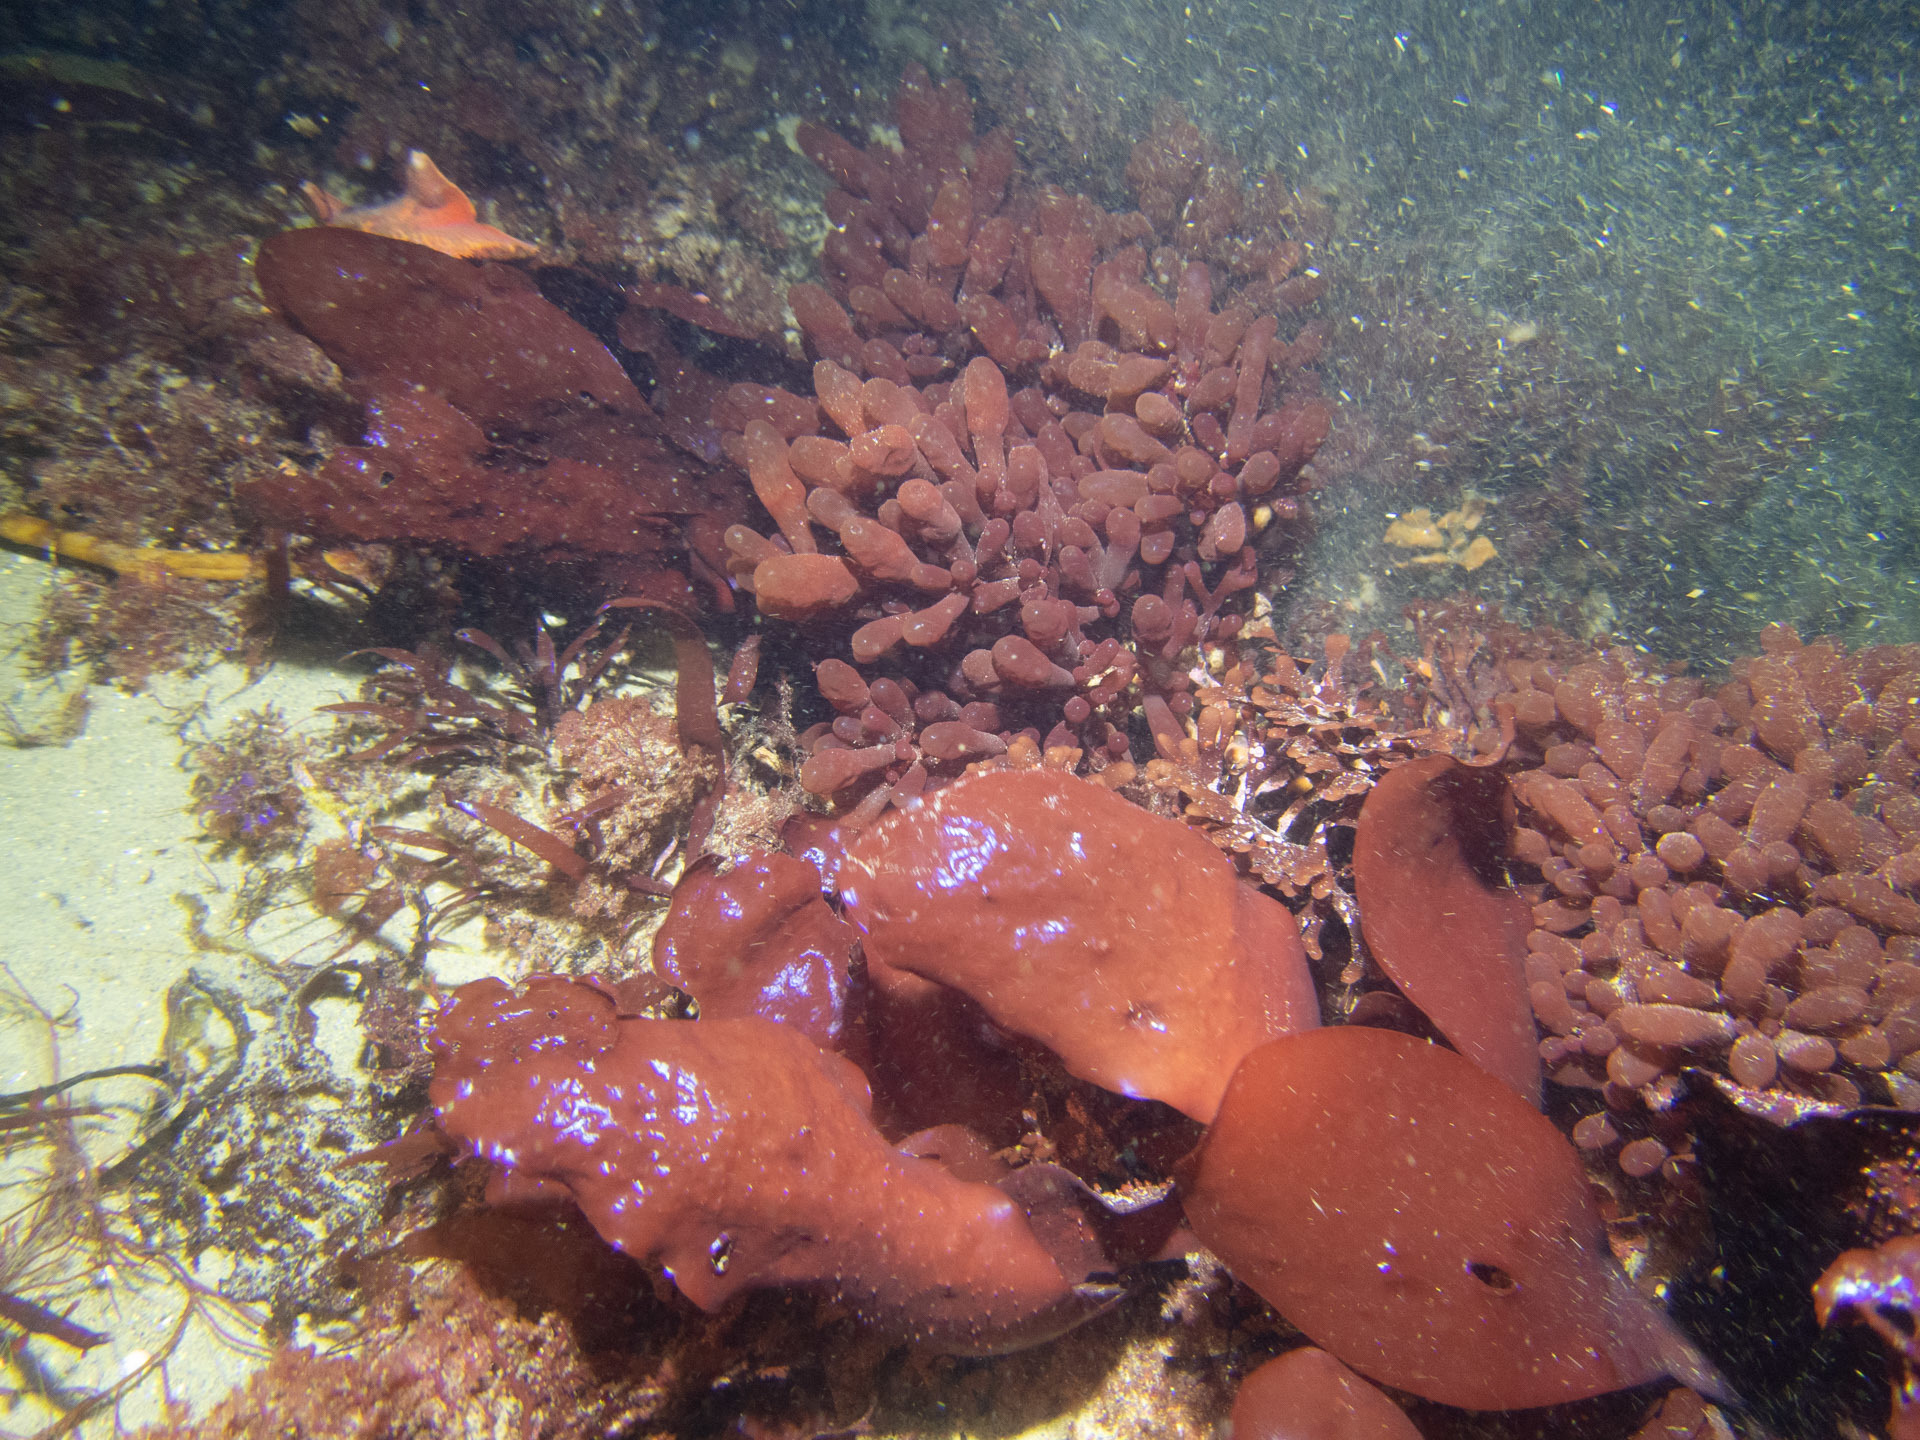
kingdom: Plantae
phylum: Rhodophyta
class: Florideophyceae
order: Rhodymeniales
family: Rhodymeniaceae
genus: Botryocladia
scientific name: Botryocladia pseudodichotoma
